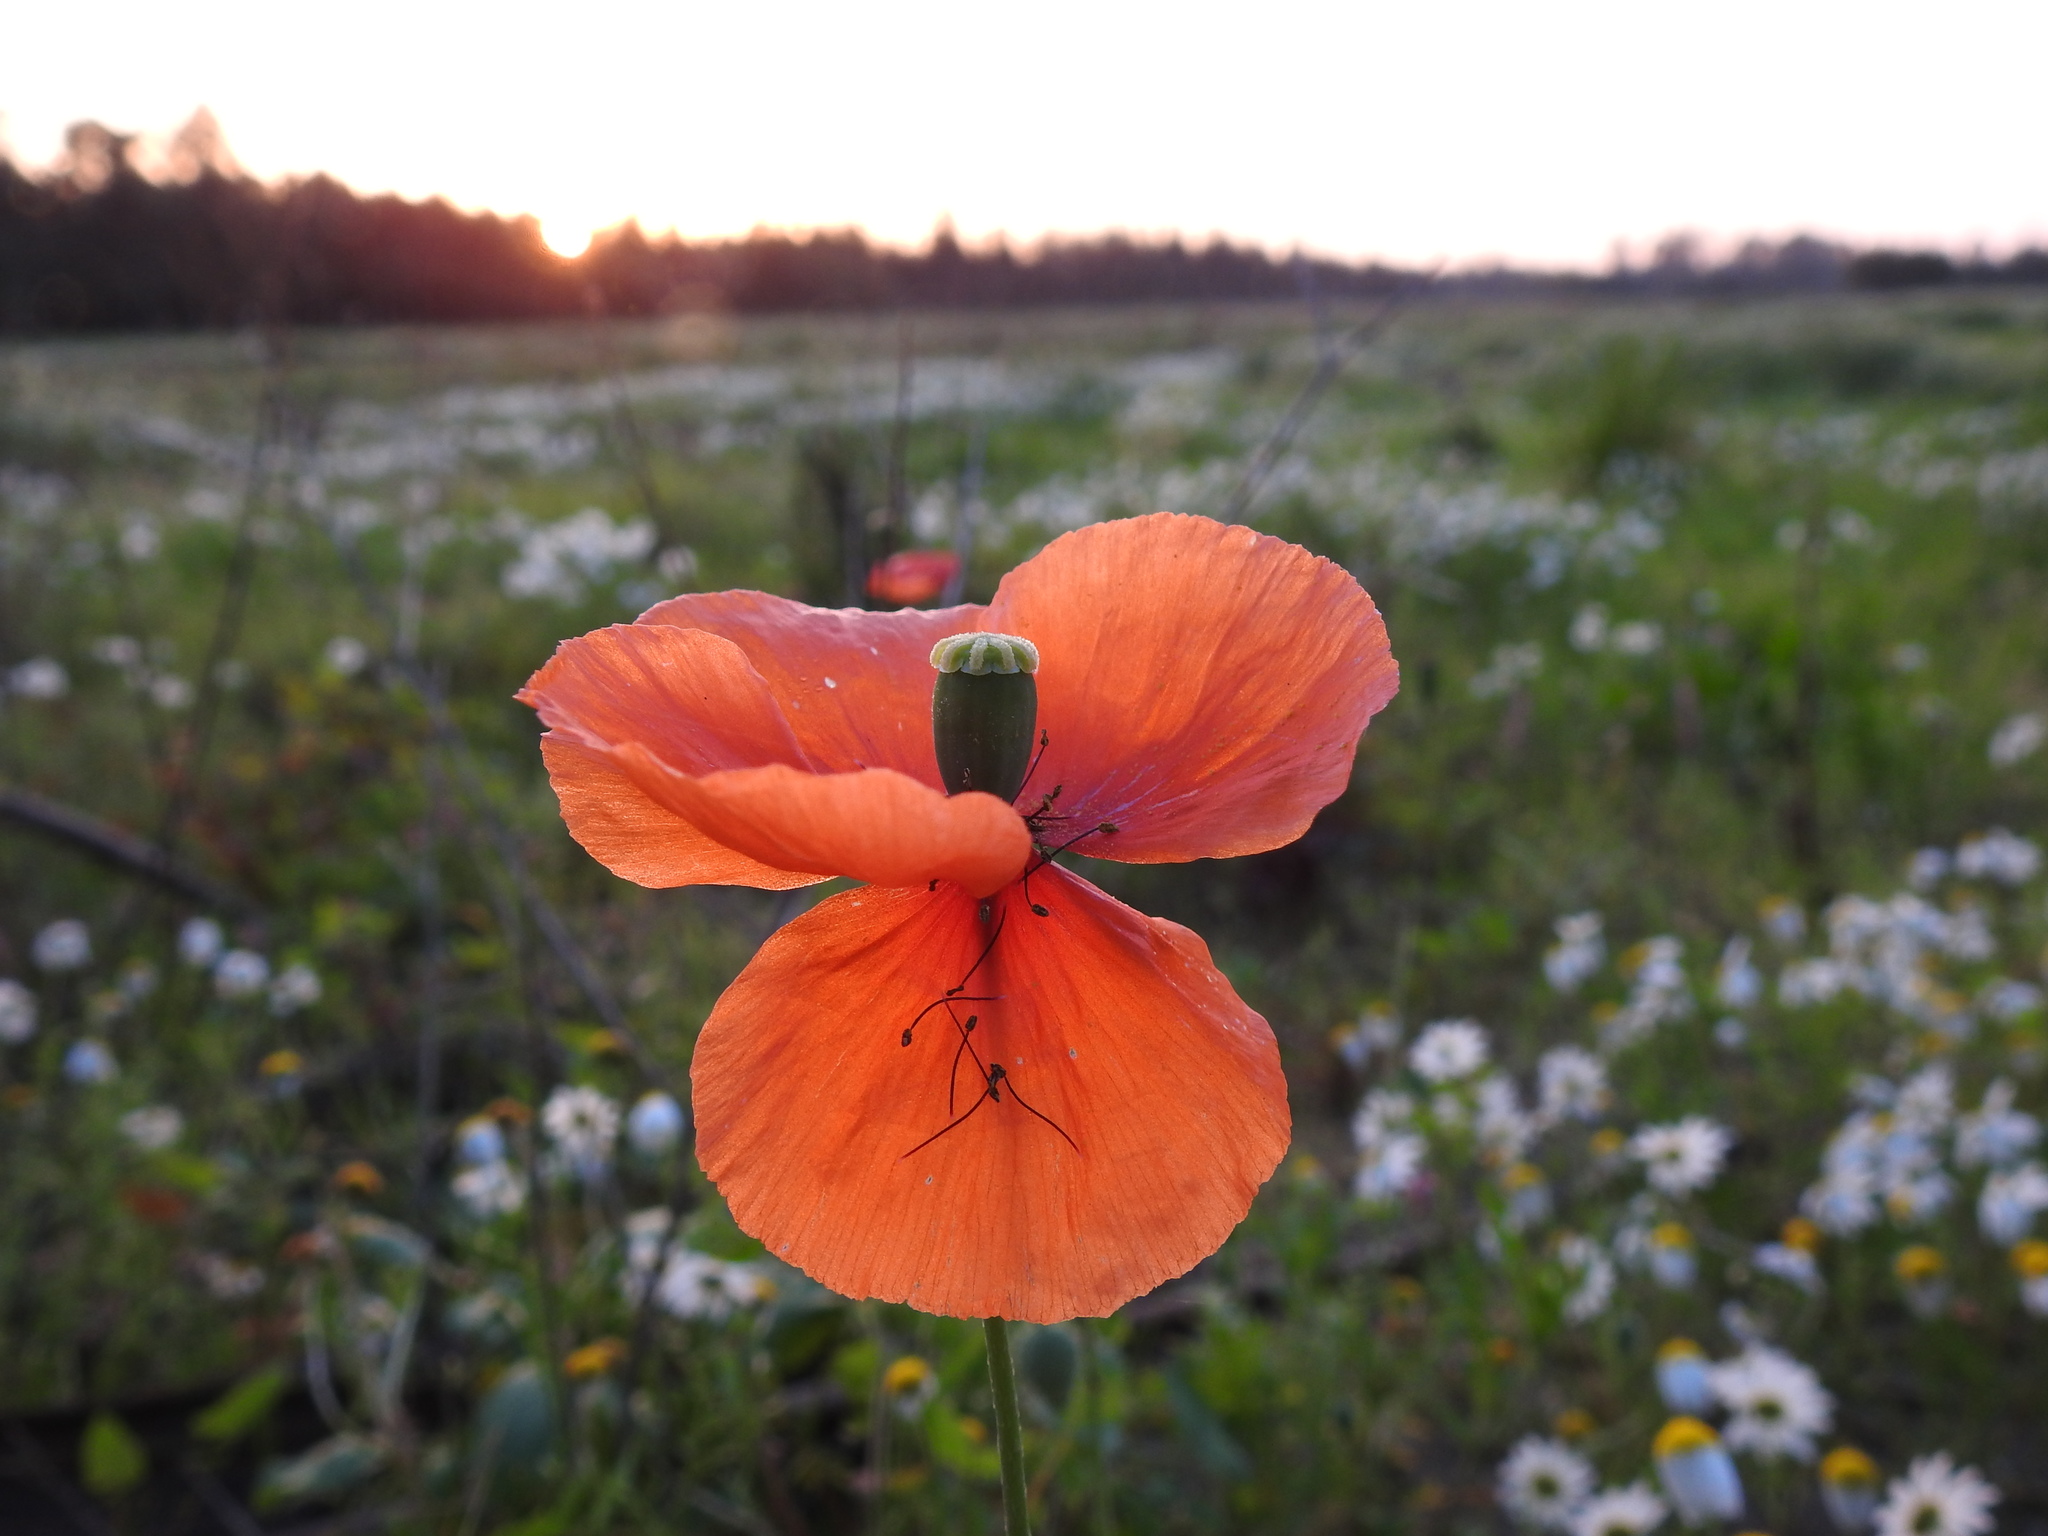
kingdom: Plantae
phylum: Tracheophyta
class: Magnoliopsida
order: Ranunculales
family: Papaveraceae
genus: Papaver
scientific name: Papaver dubium
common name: Long-headed poppy
